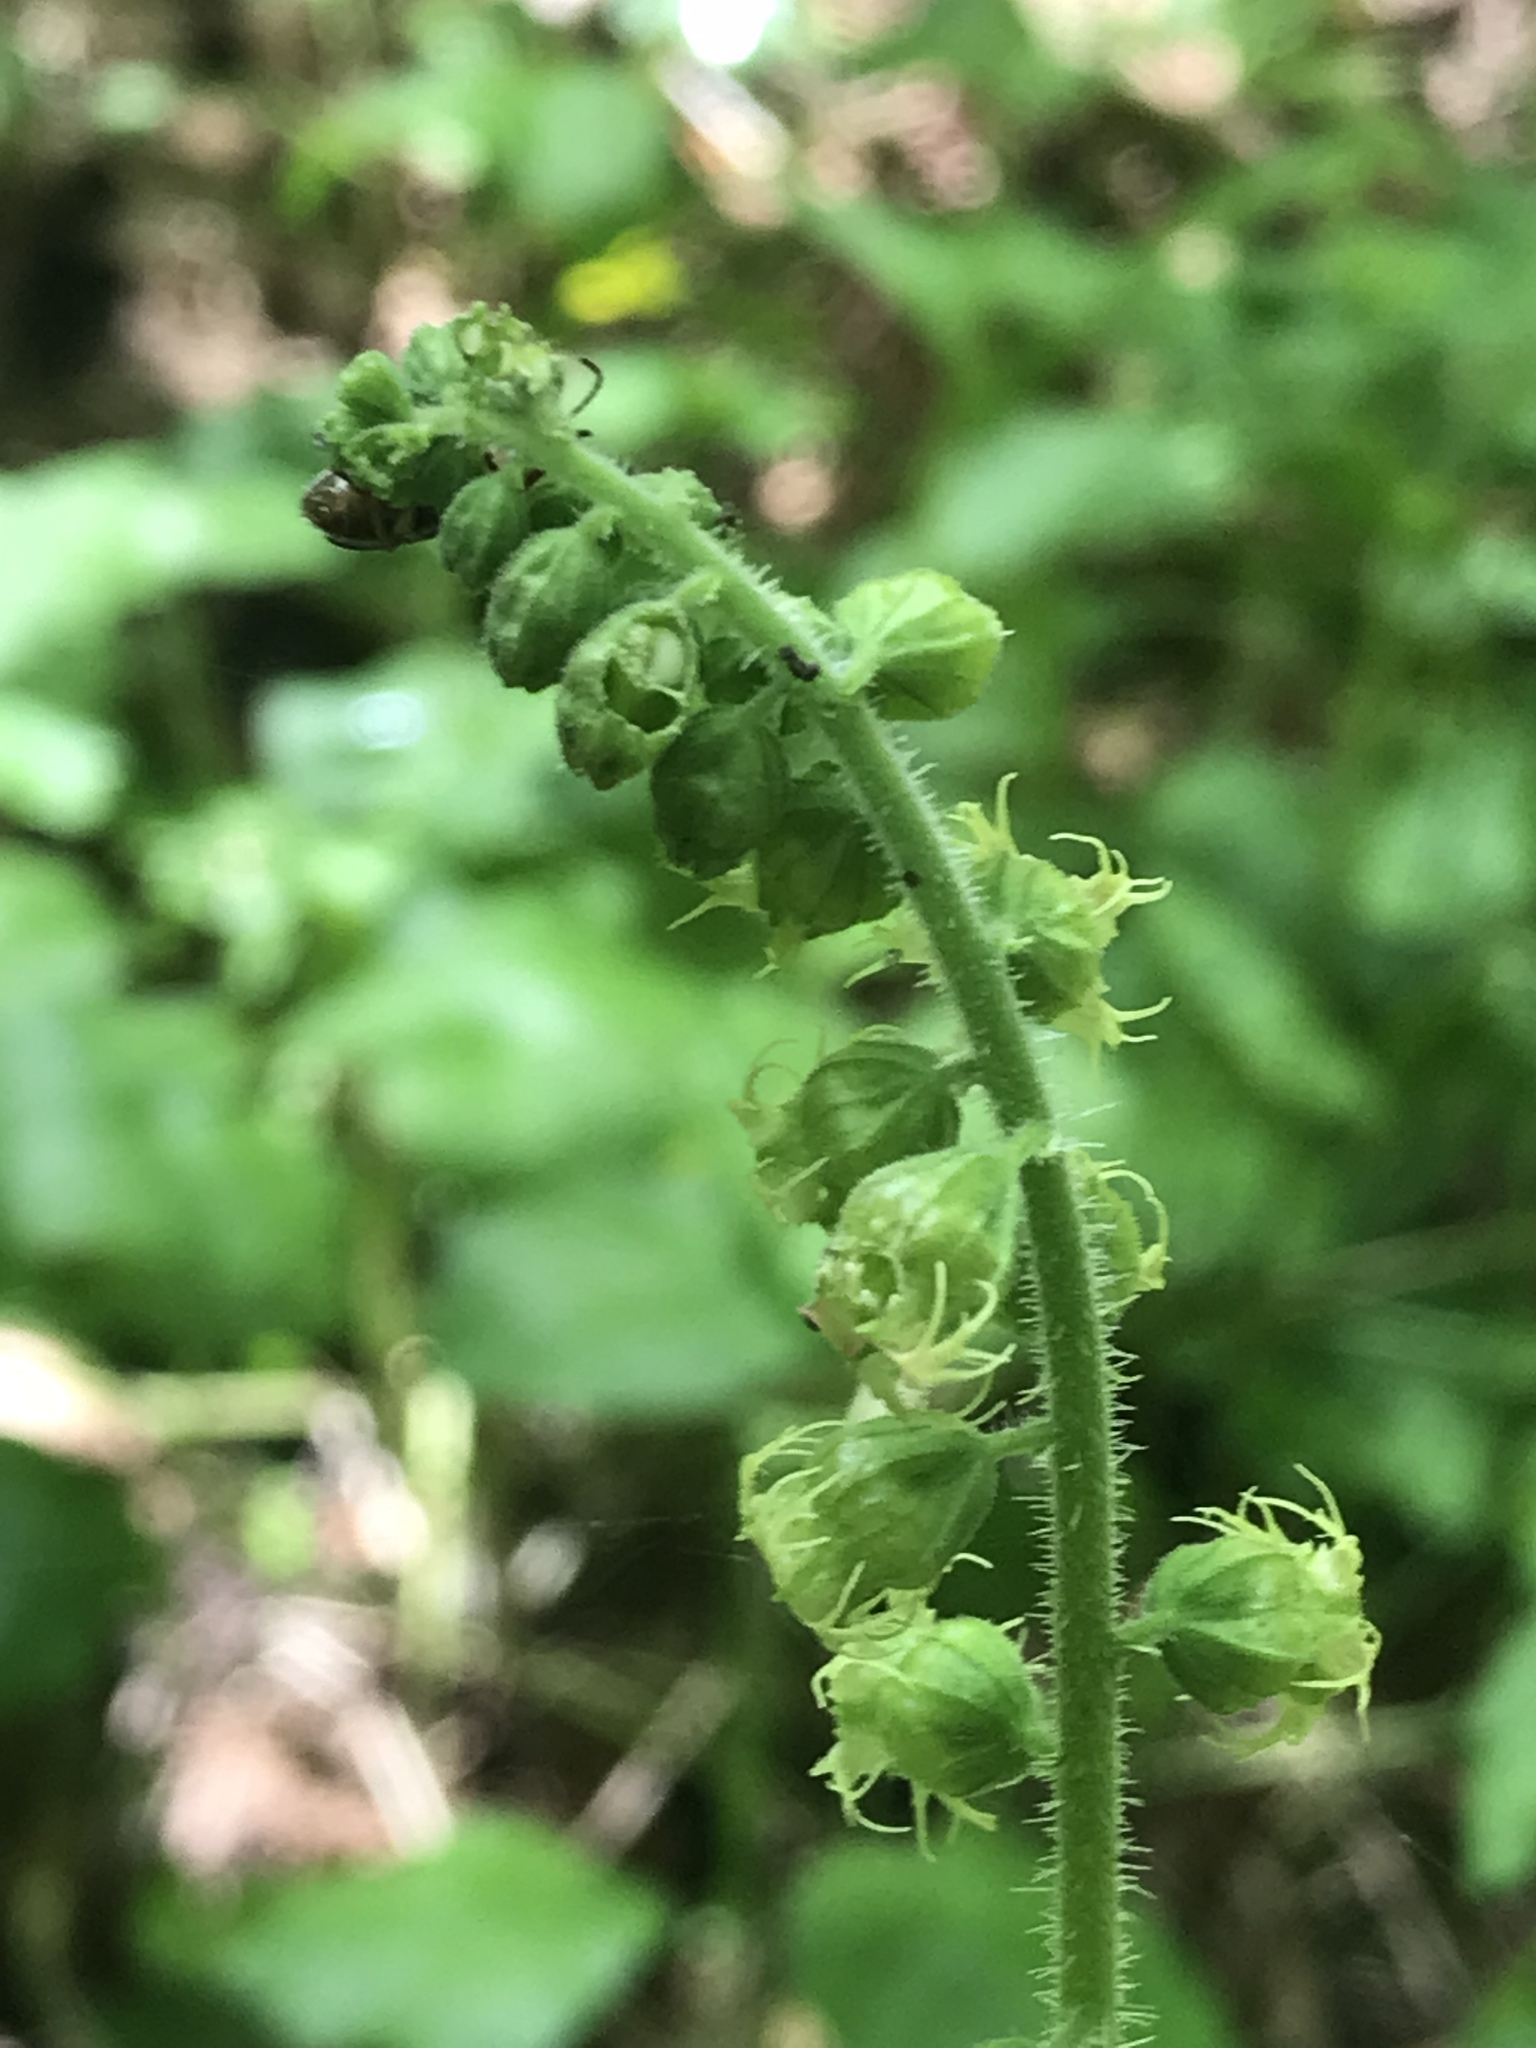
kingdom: Plantae
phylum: Tracheophyta
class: Magnoliopsida
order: Saxifragales
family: Saxifragaceae
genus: Tellima
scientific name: Tellima grandiflora
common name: Fringecups
